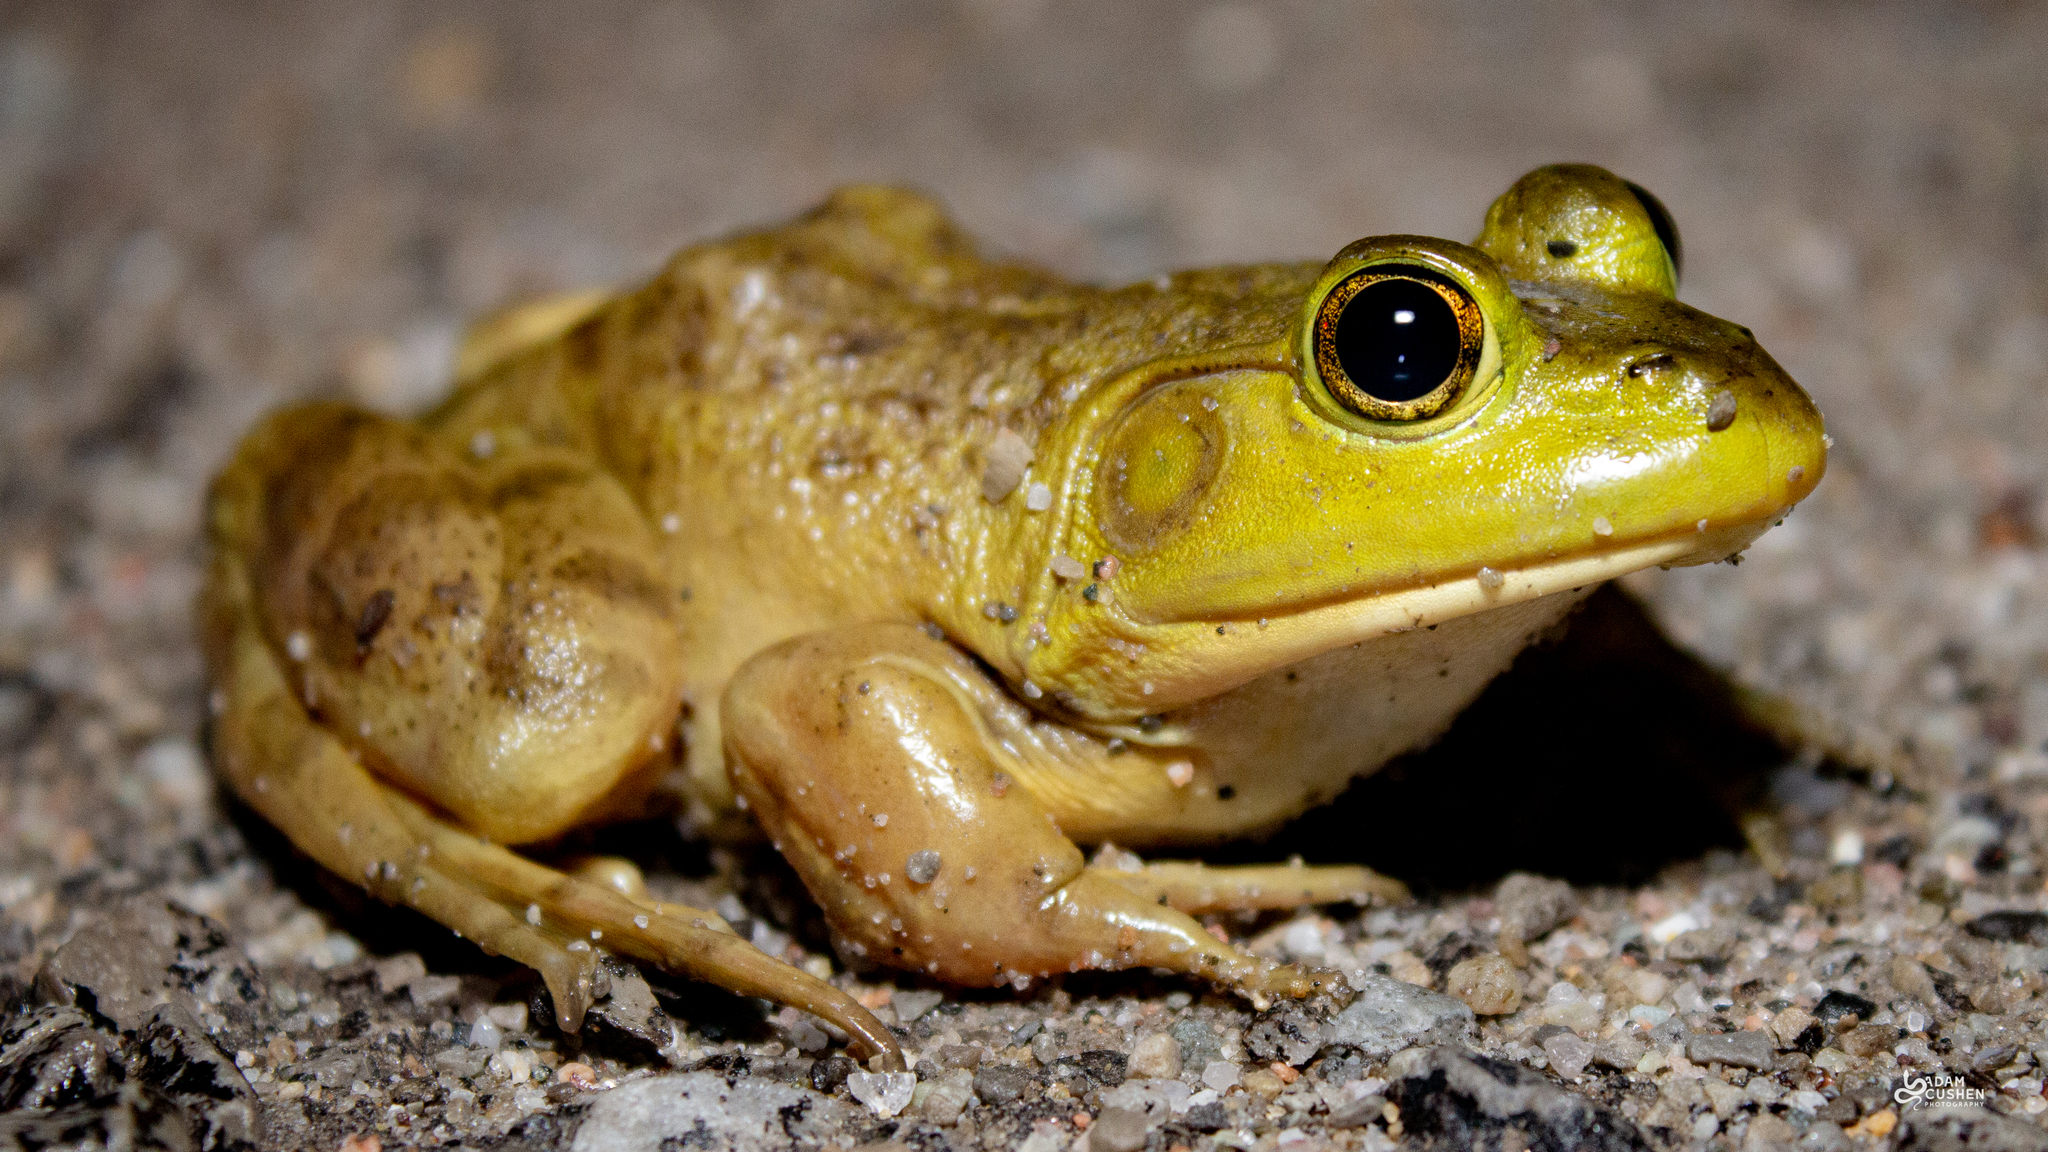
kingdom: Animalia
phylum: Chordata
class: Amphibia
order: Anura
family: Ranidae
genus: Lithobates
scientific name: Lithobates catesbeianus
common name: American bullfrog
